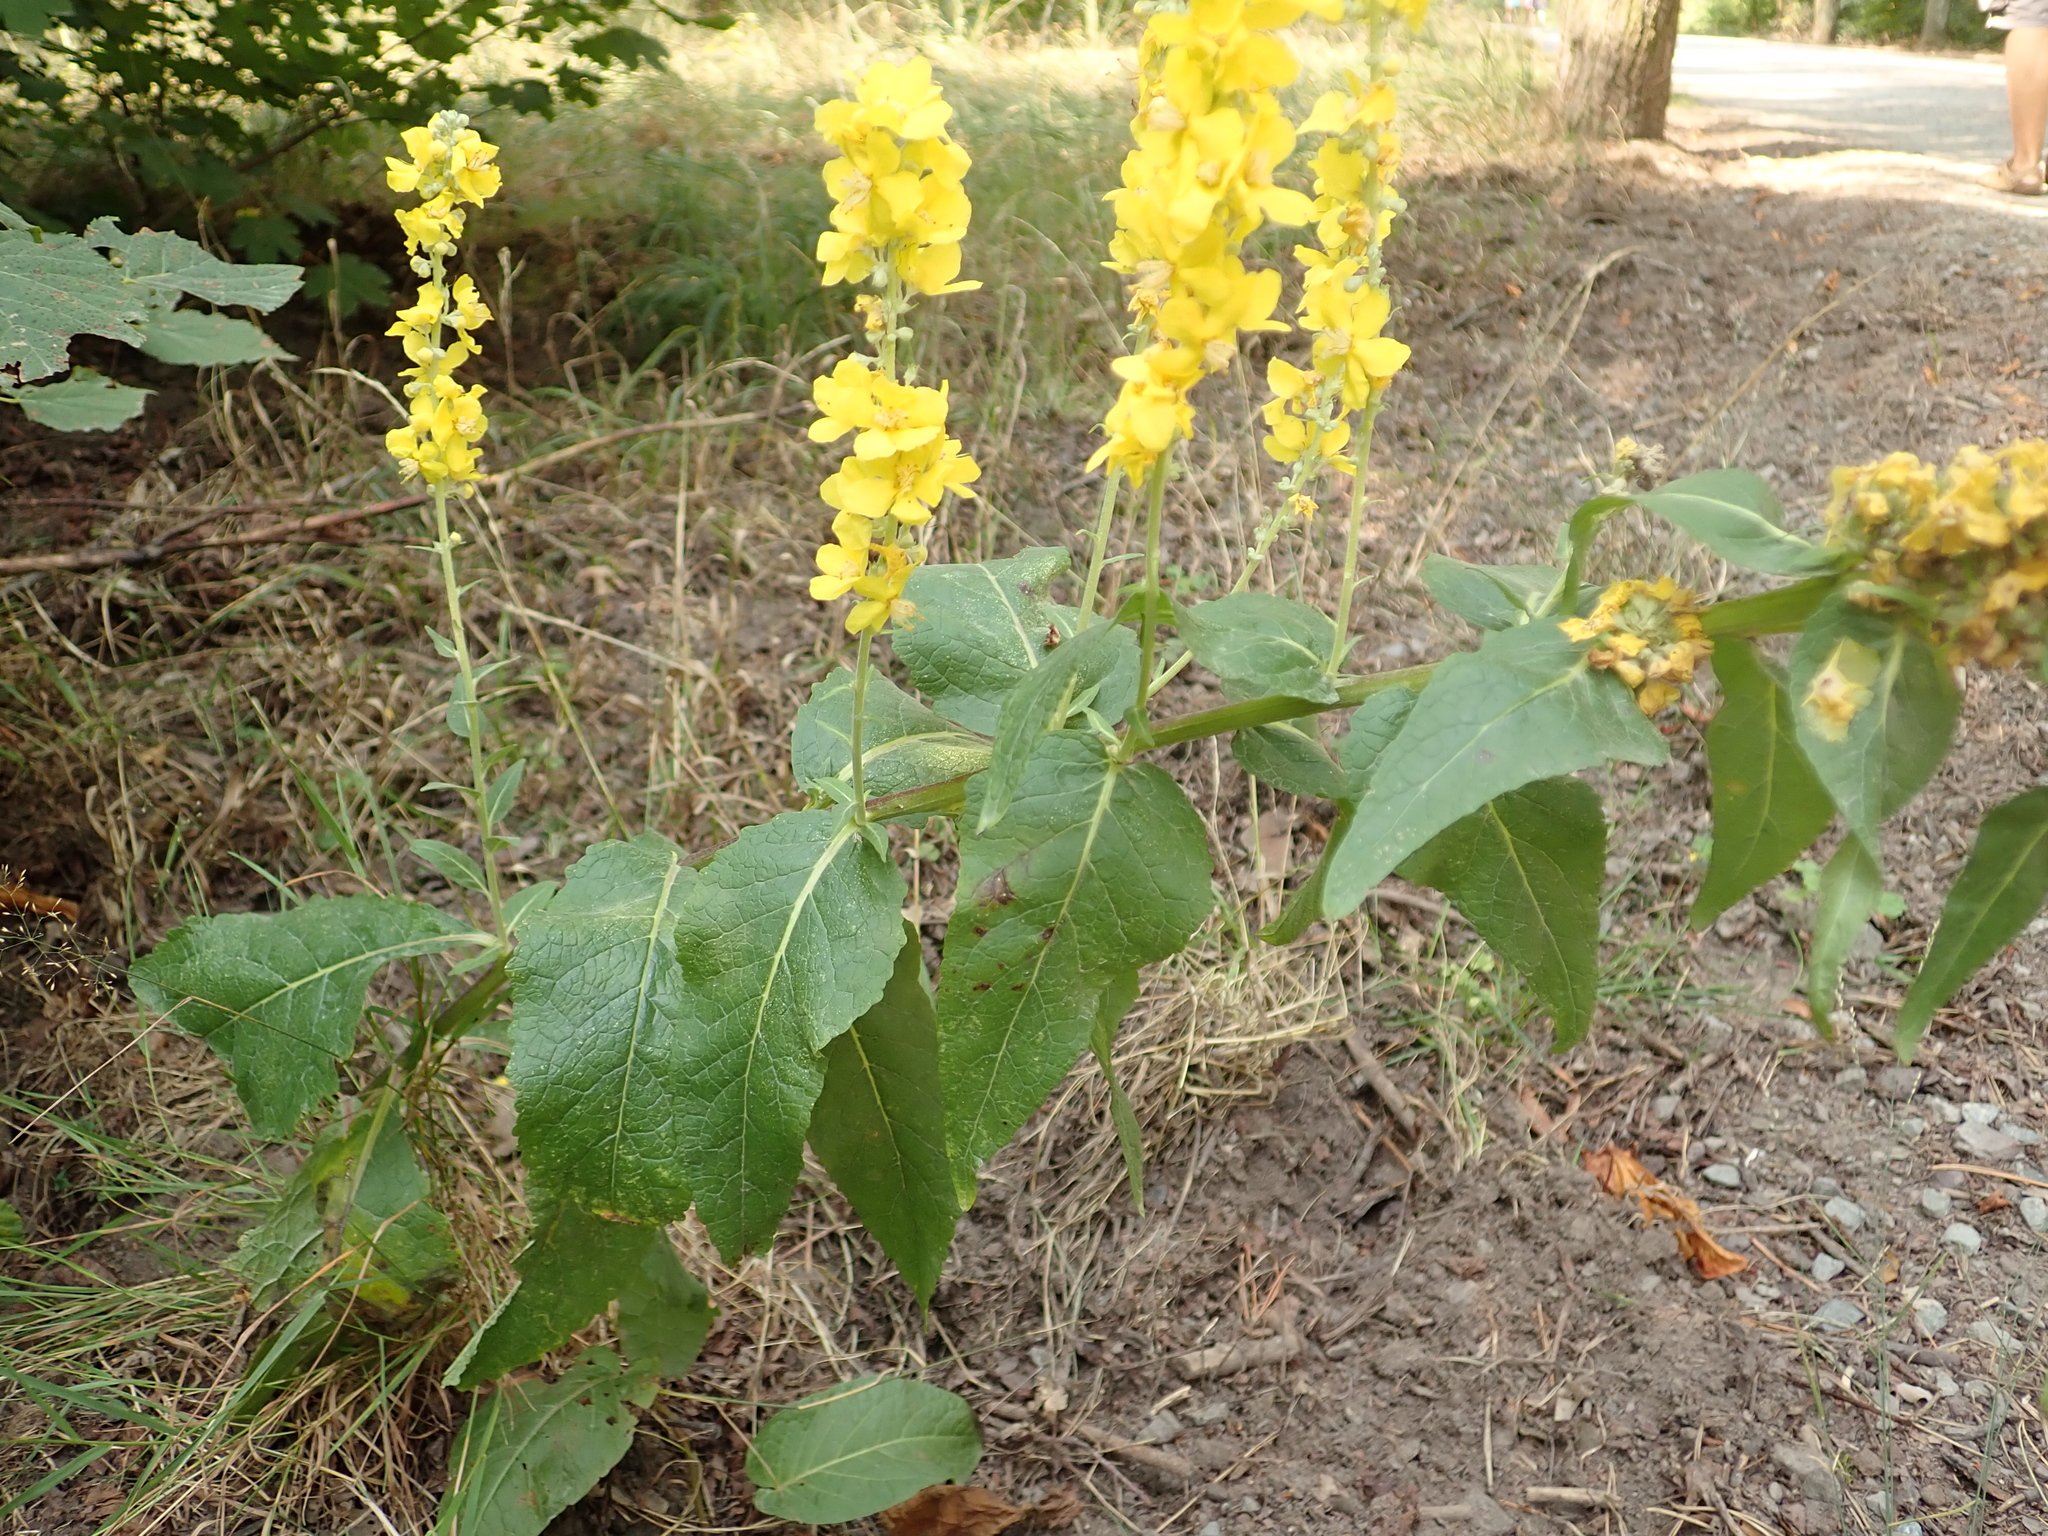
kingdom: Plantae
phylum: Tracheophyta
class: Magnoliopsida
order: Lamiales
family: Scrophulariaceae
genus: Verbascum
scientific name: Verbascum lychnitis
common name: White mullein
